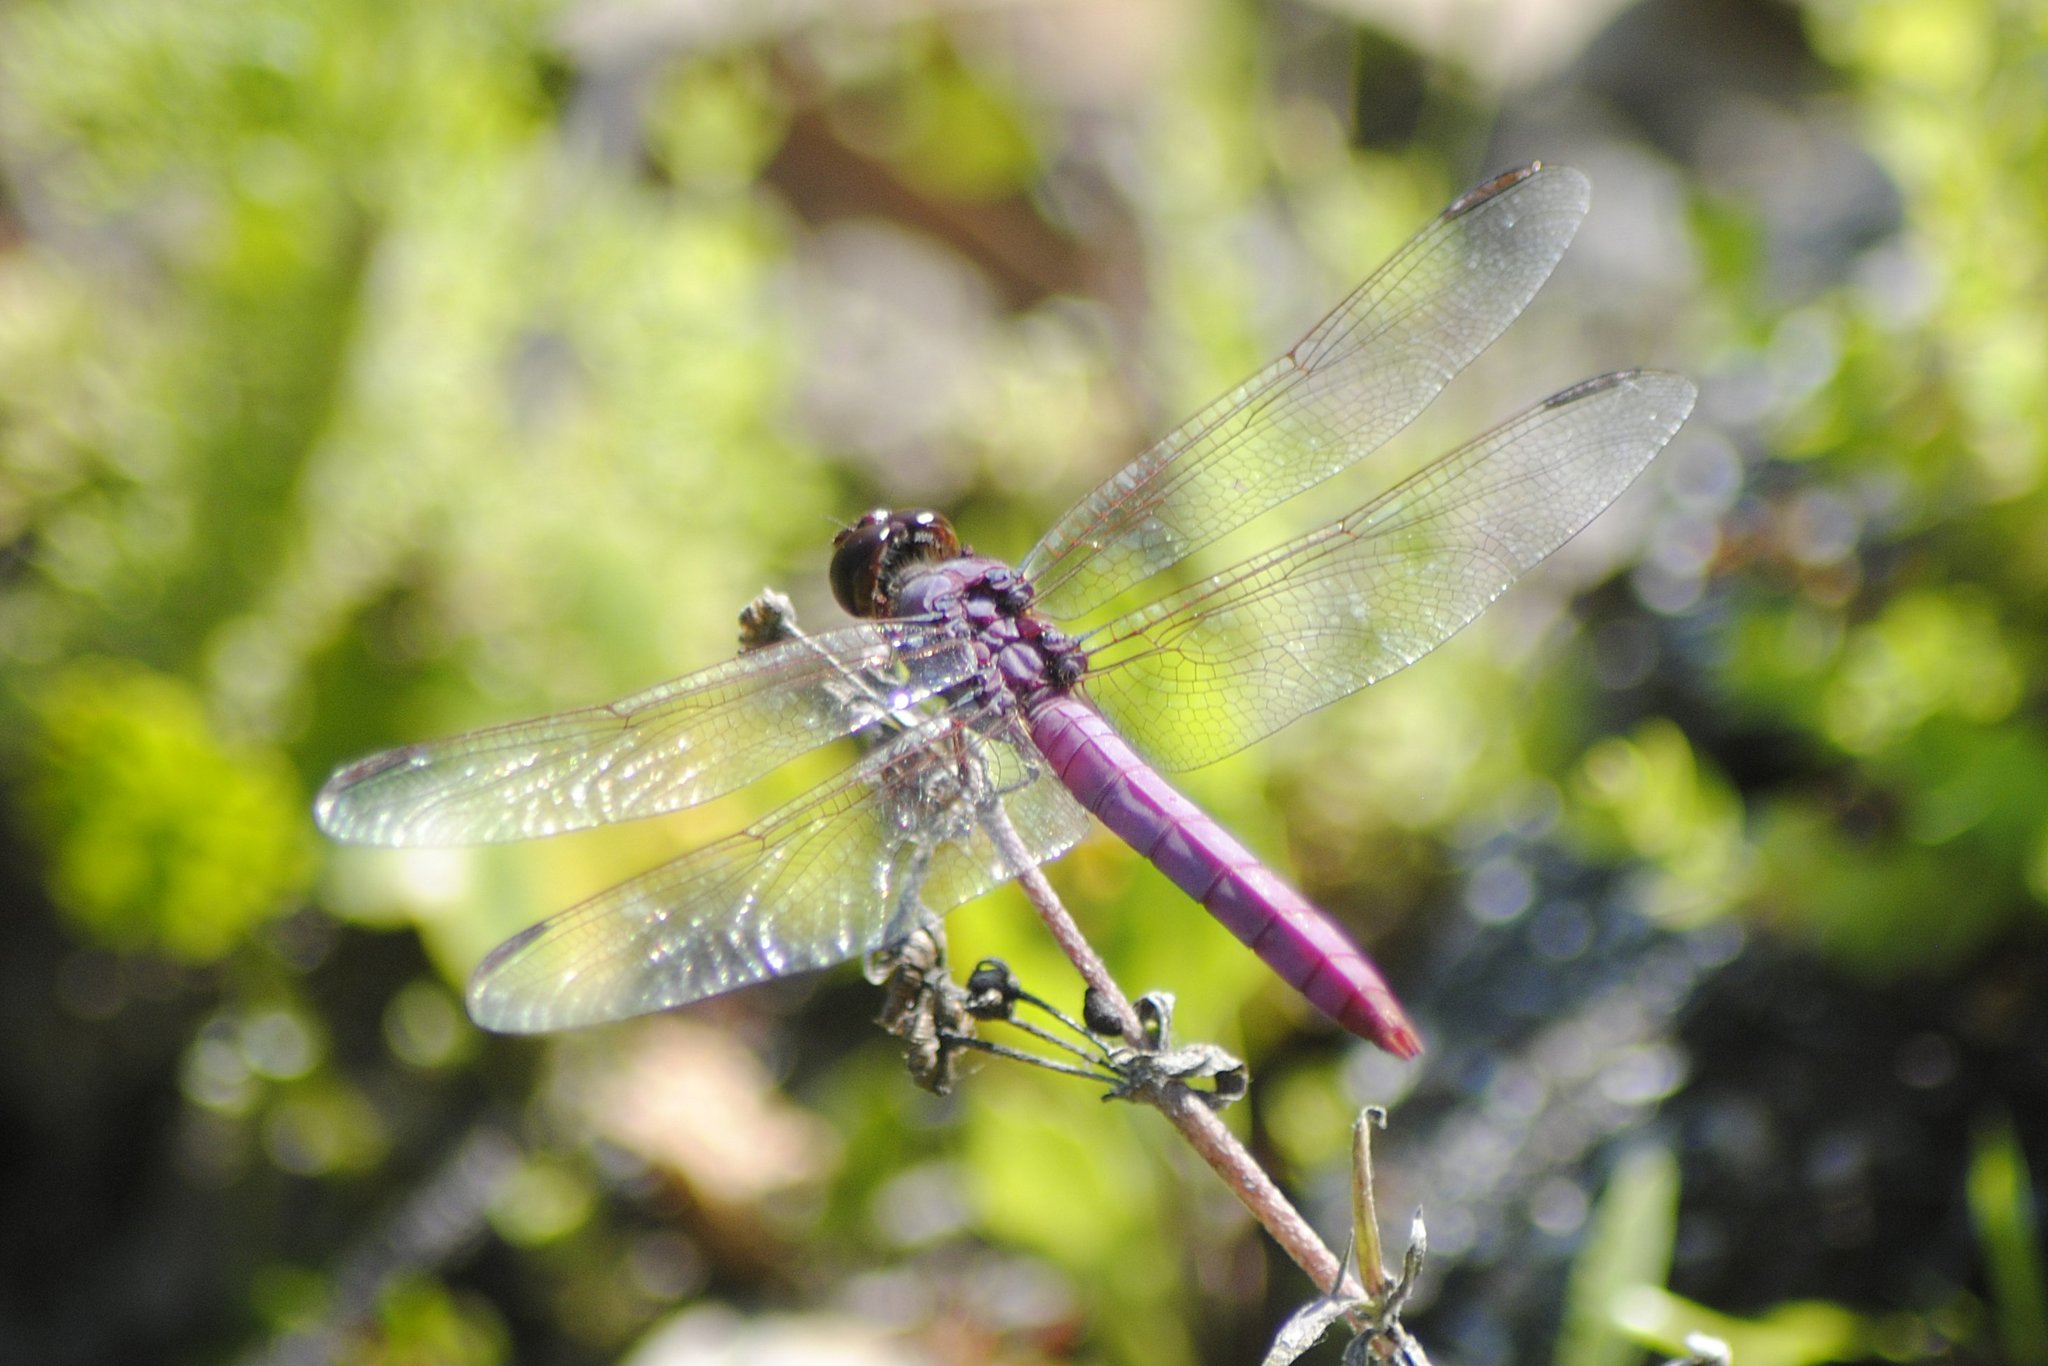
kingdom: Animalia
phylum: Arthropoda
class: Insecta
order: Odonata
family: Libellulidae
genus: Orthemis
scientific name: Orthemis ferruginea
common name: Roseate skimmer
